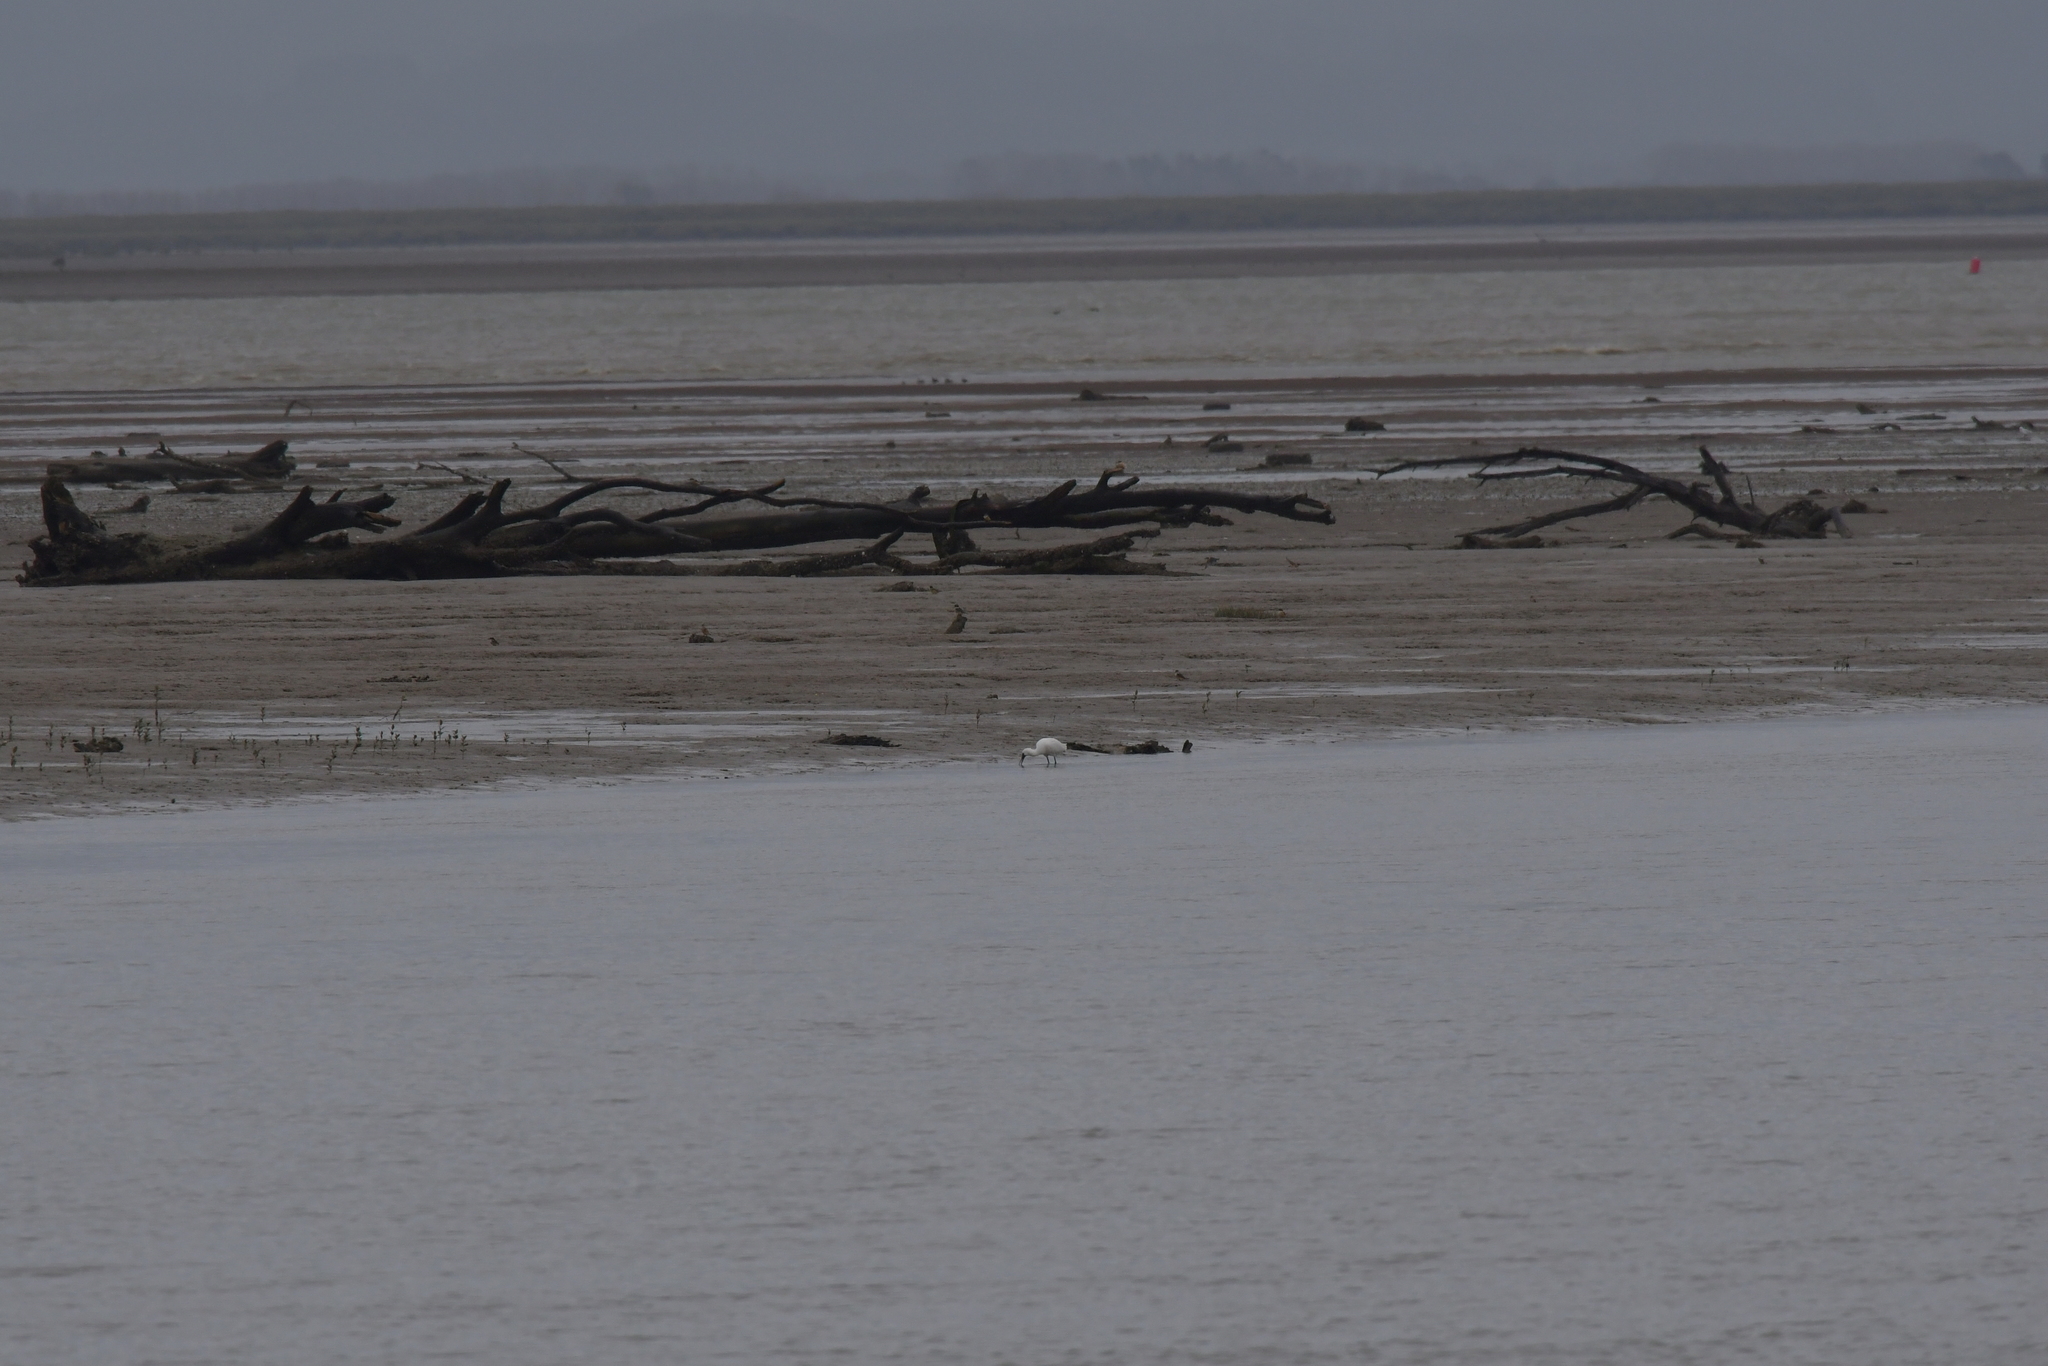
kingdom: Animalia
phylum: Chordata
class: Aves
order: Pelecaniformes
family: Threskiornithidae
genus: Platalea
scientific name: Platalea regia
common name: Royal spoonbill
